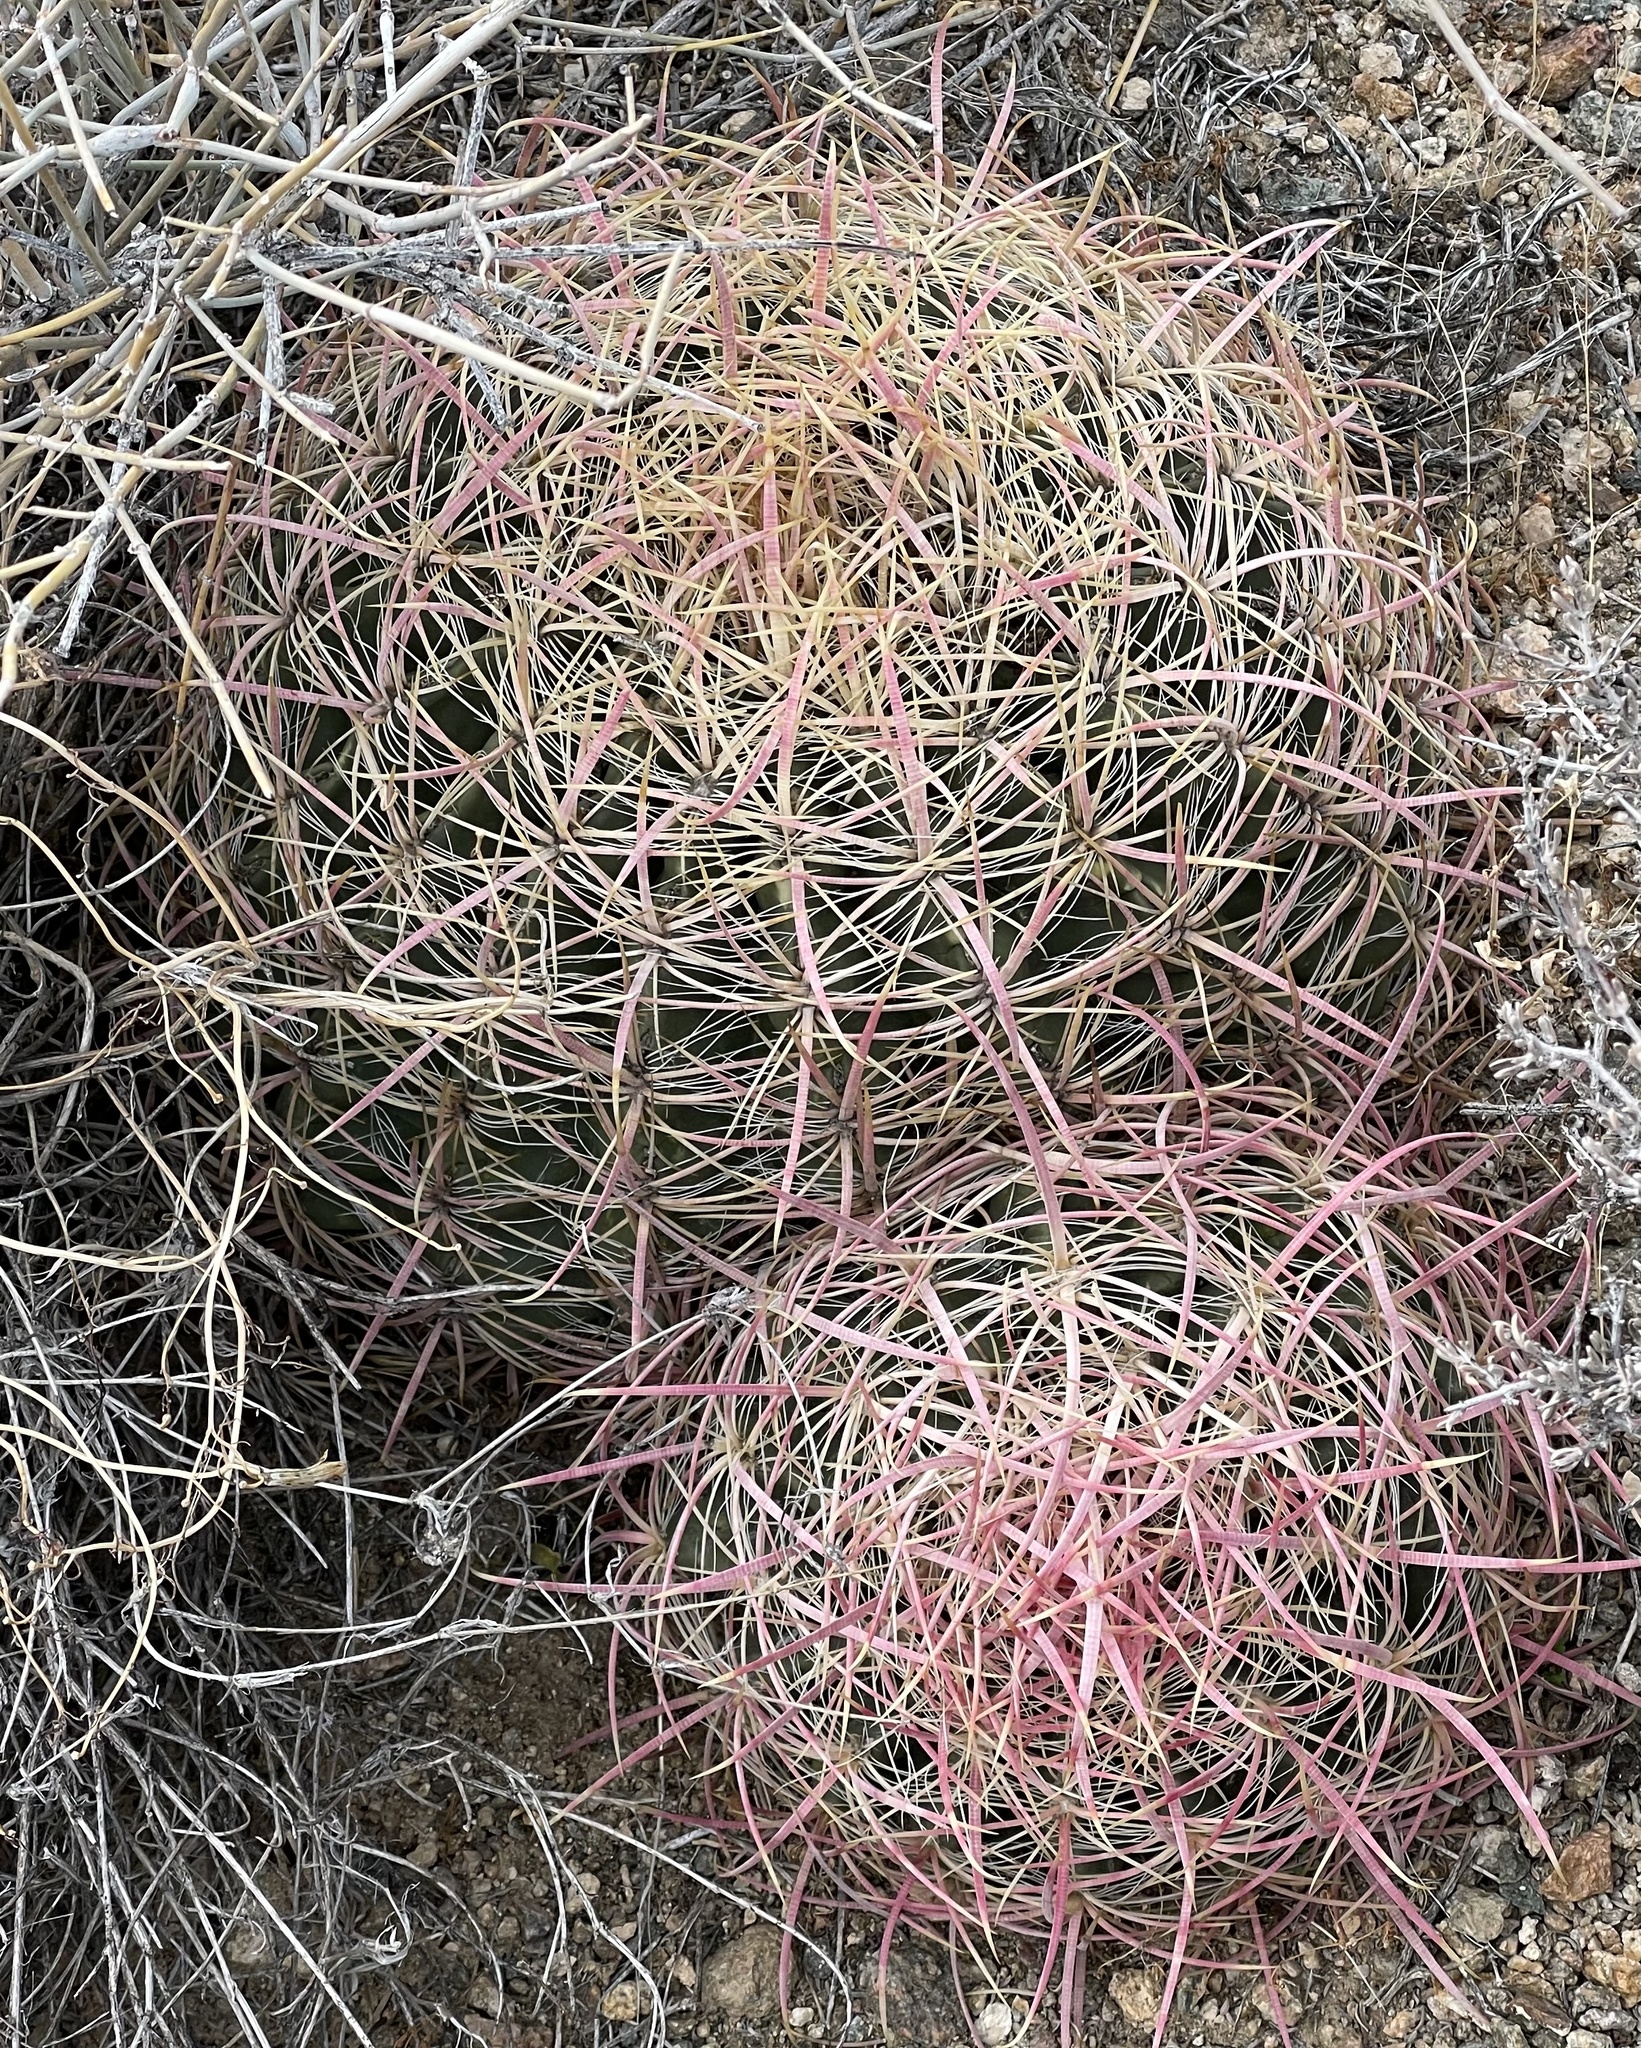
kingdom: Plantae
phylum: Tracheophyta
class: Magnoliopsida
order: Caryophyllales
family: Cactaceae
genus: Ferocactus
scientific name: Ferocactus cylindraceus
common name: California barrel cactus
